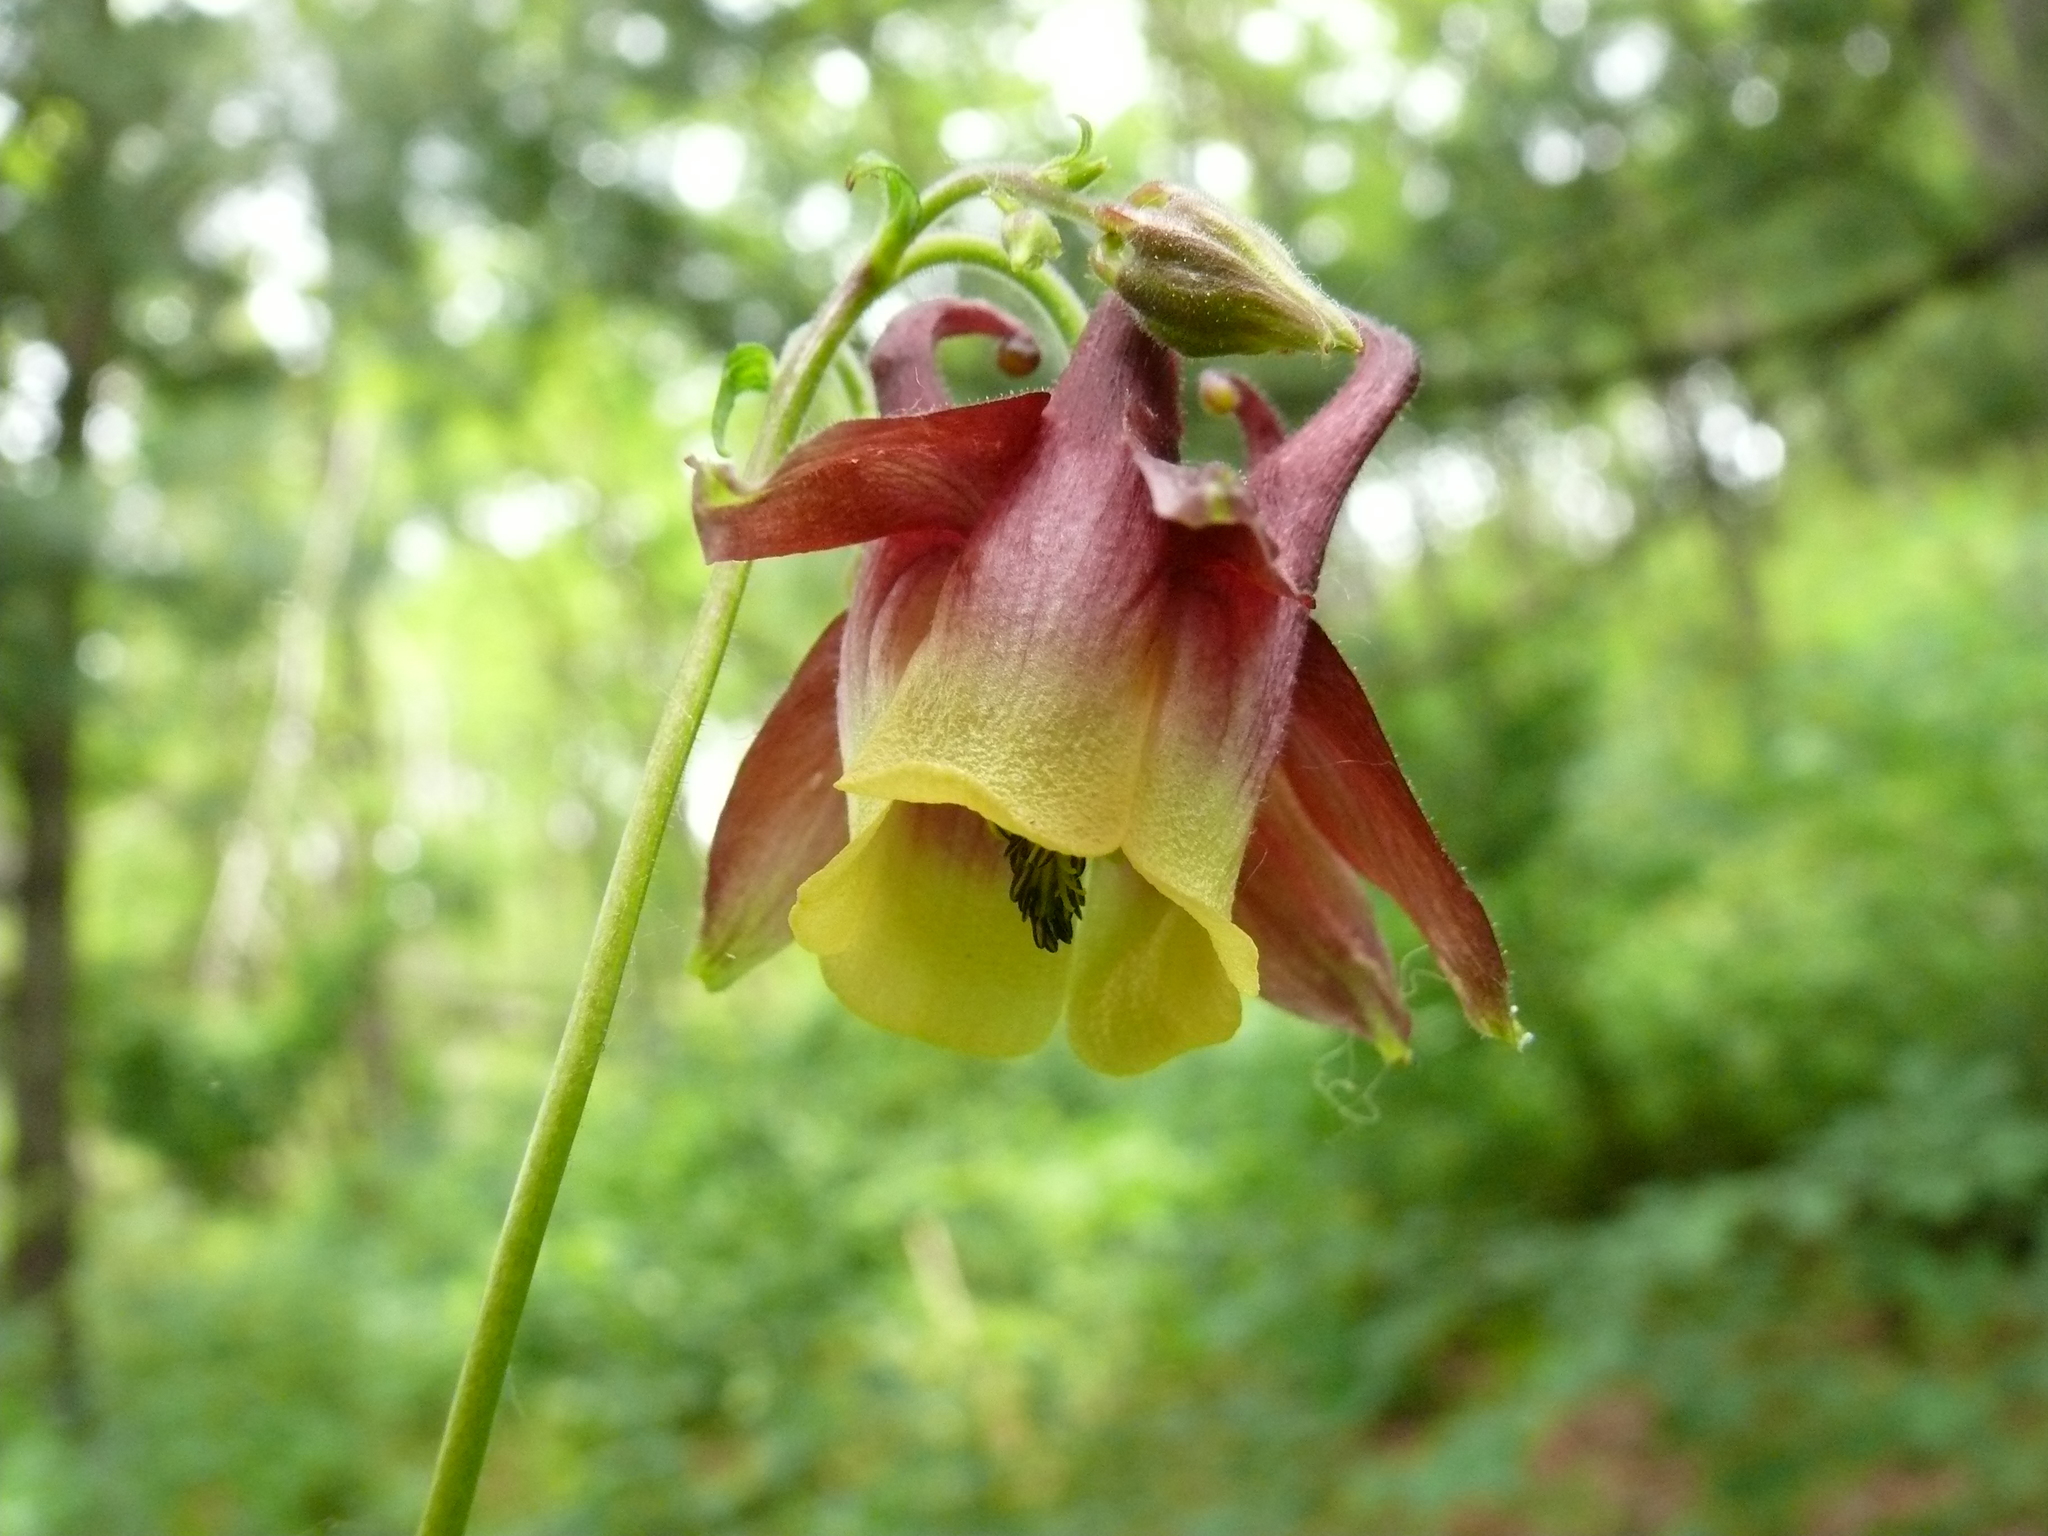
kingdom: Plantae
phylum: Tracheophyta
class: Magnoliopsida
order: Ranunculales
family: Ranunculaceae
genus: Aquilegia
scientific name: Aquilegia oxysepala
